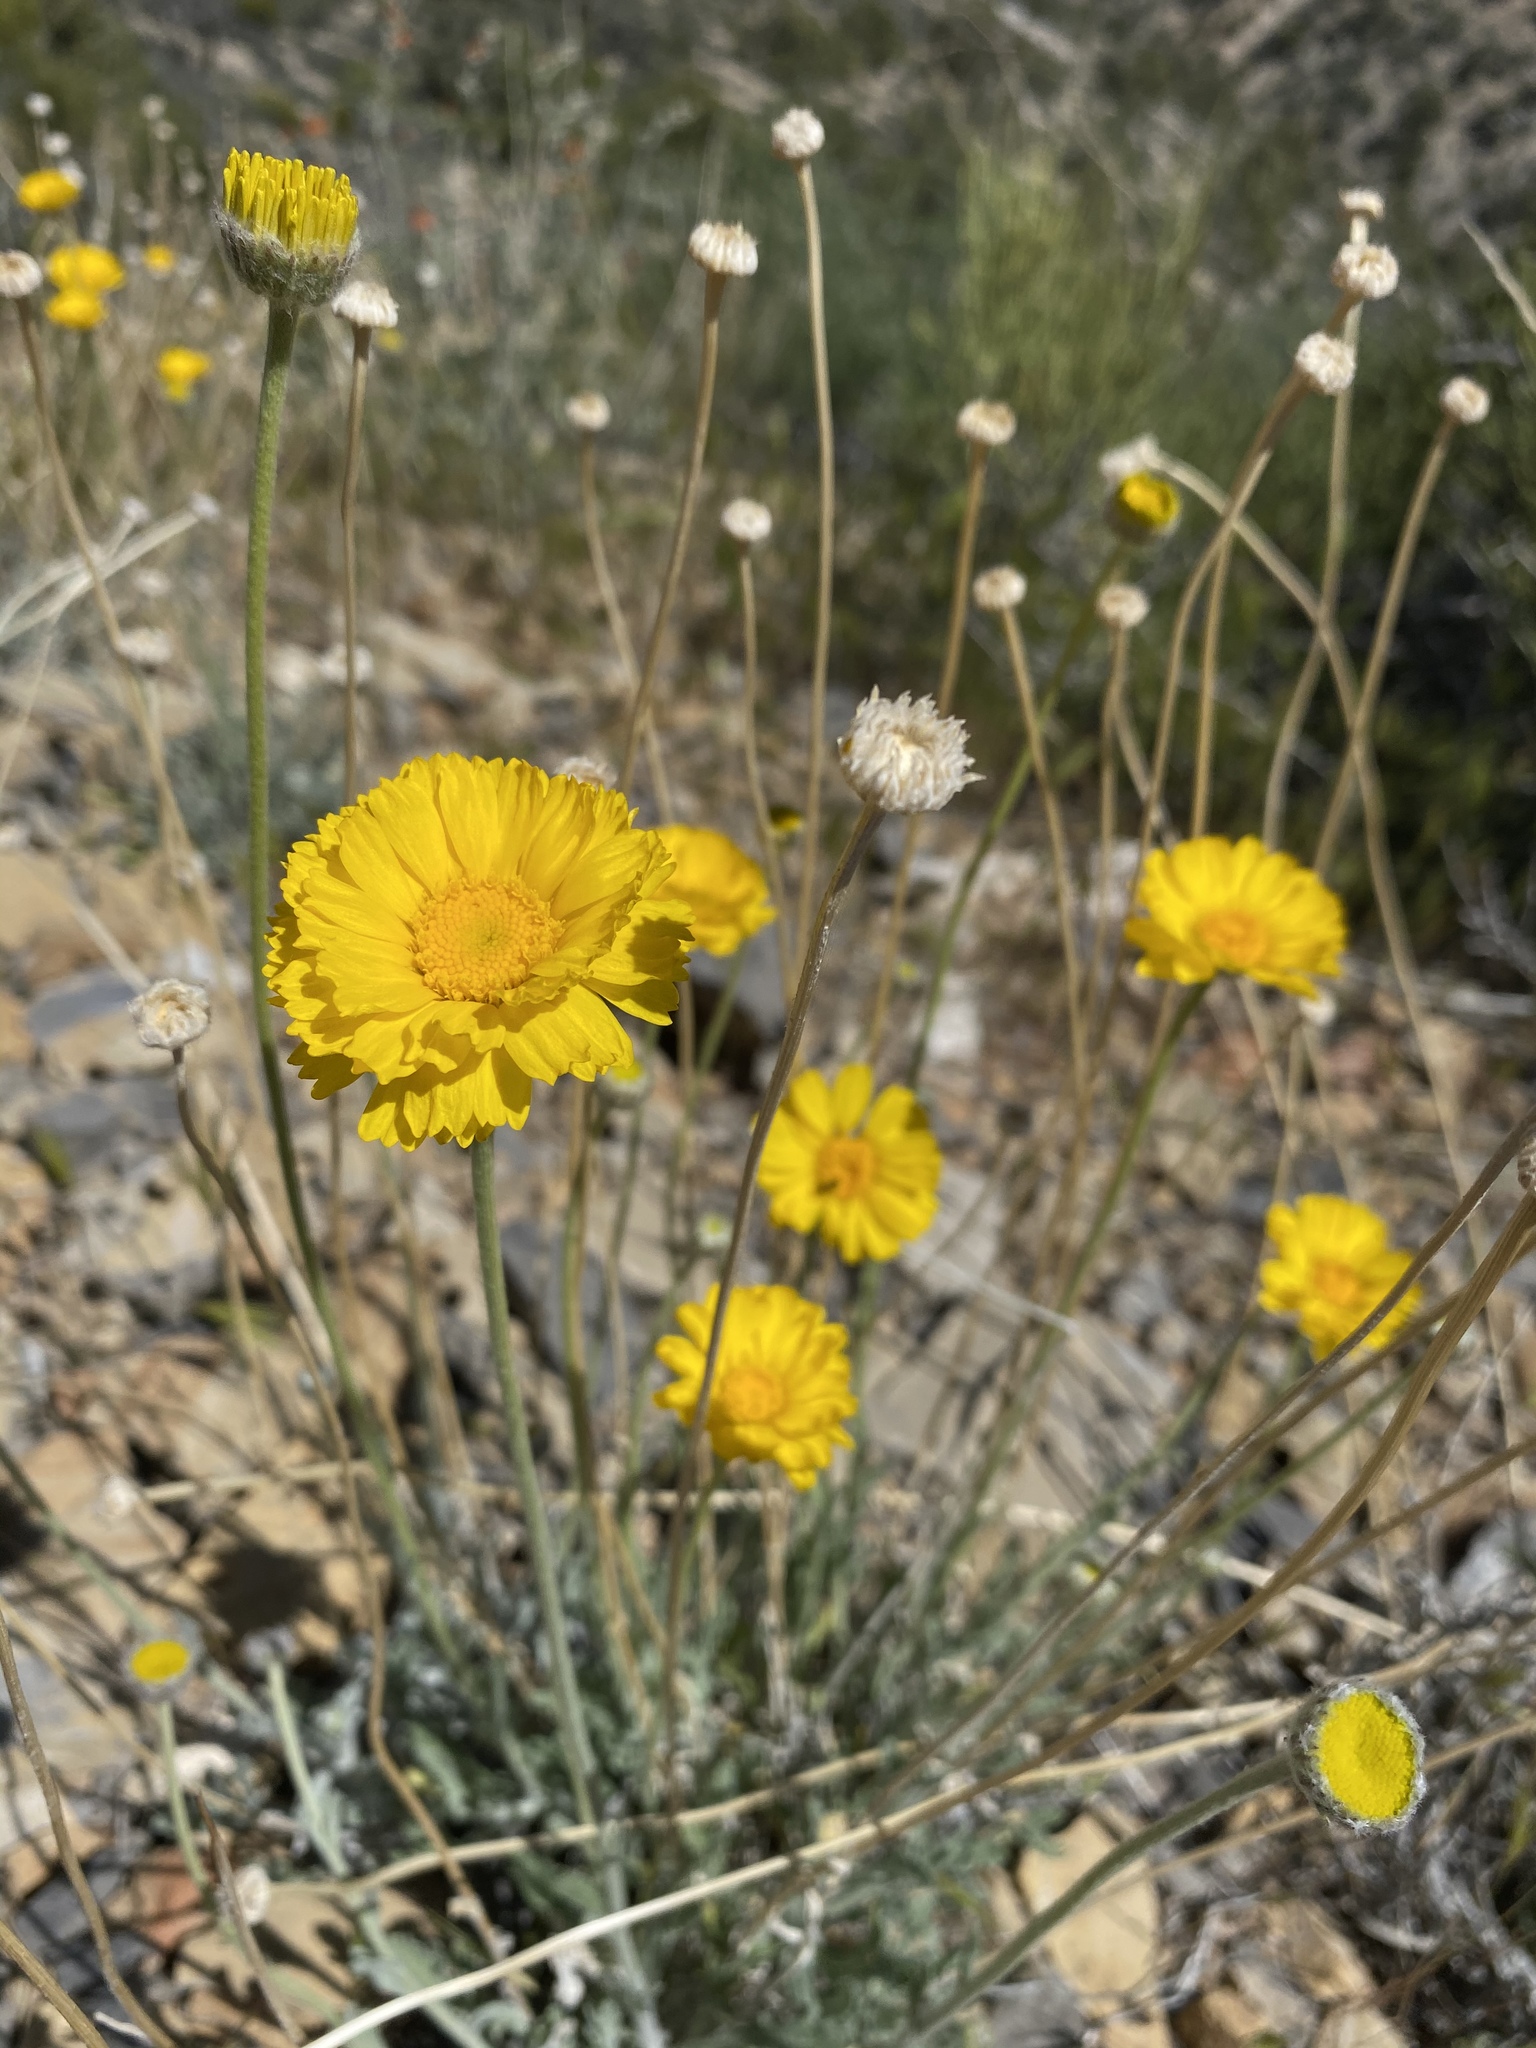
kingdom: Plantae
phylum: Tracheophyta
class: Magnoliopsida
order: Asterales
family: Asteraceae
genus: Baileya
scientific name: Baileya multiradiata
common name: Desert-marigold
